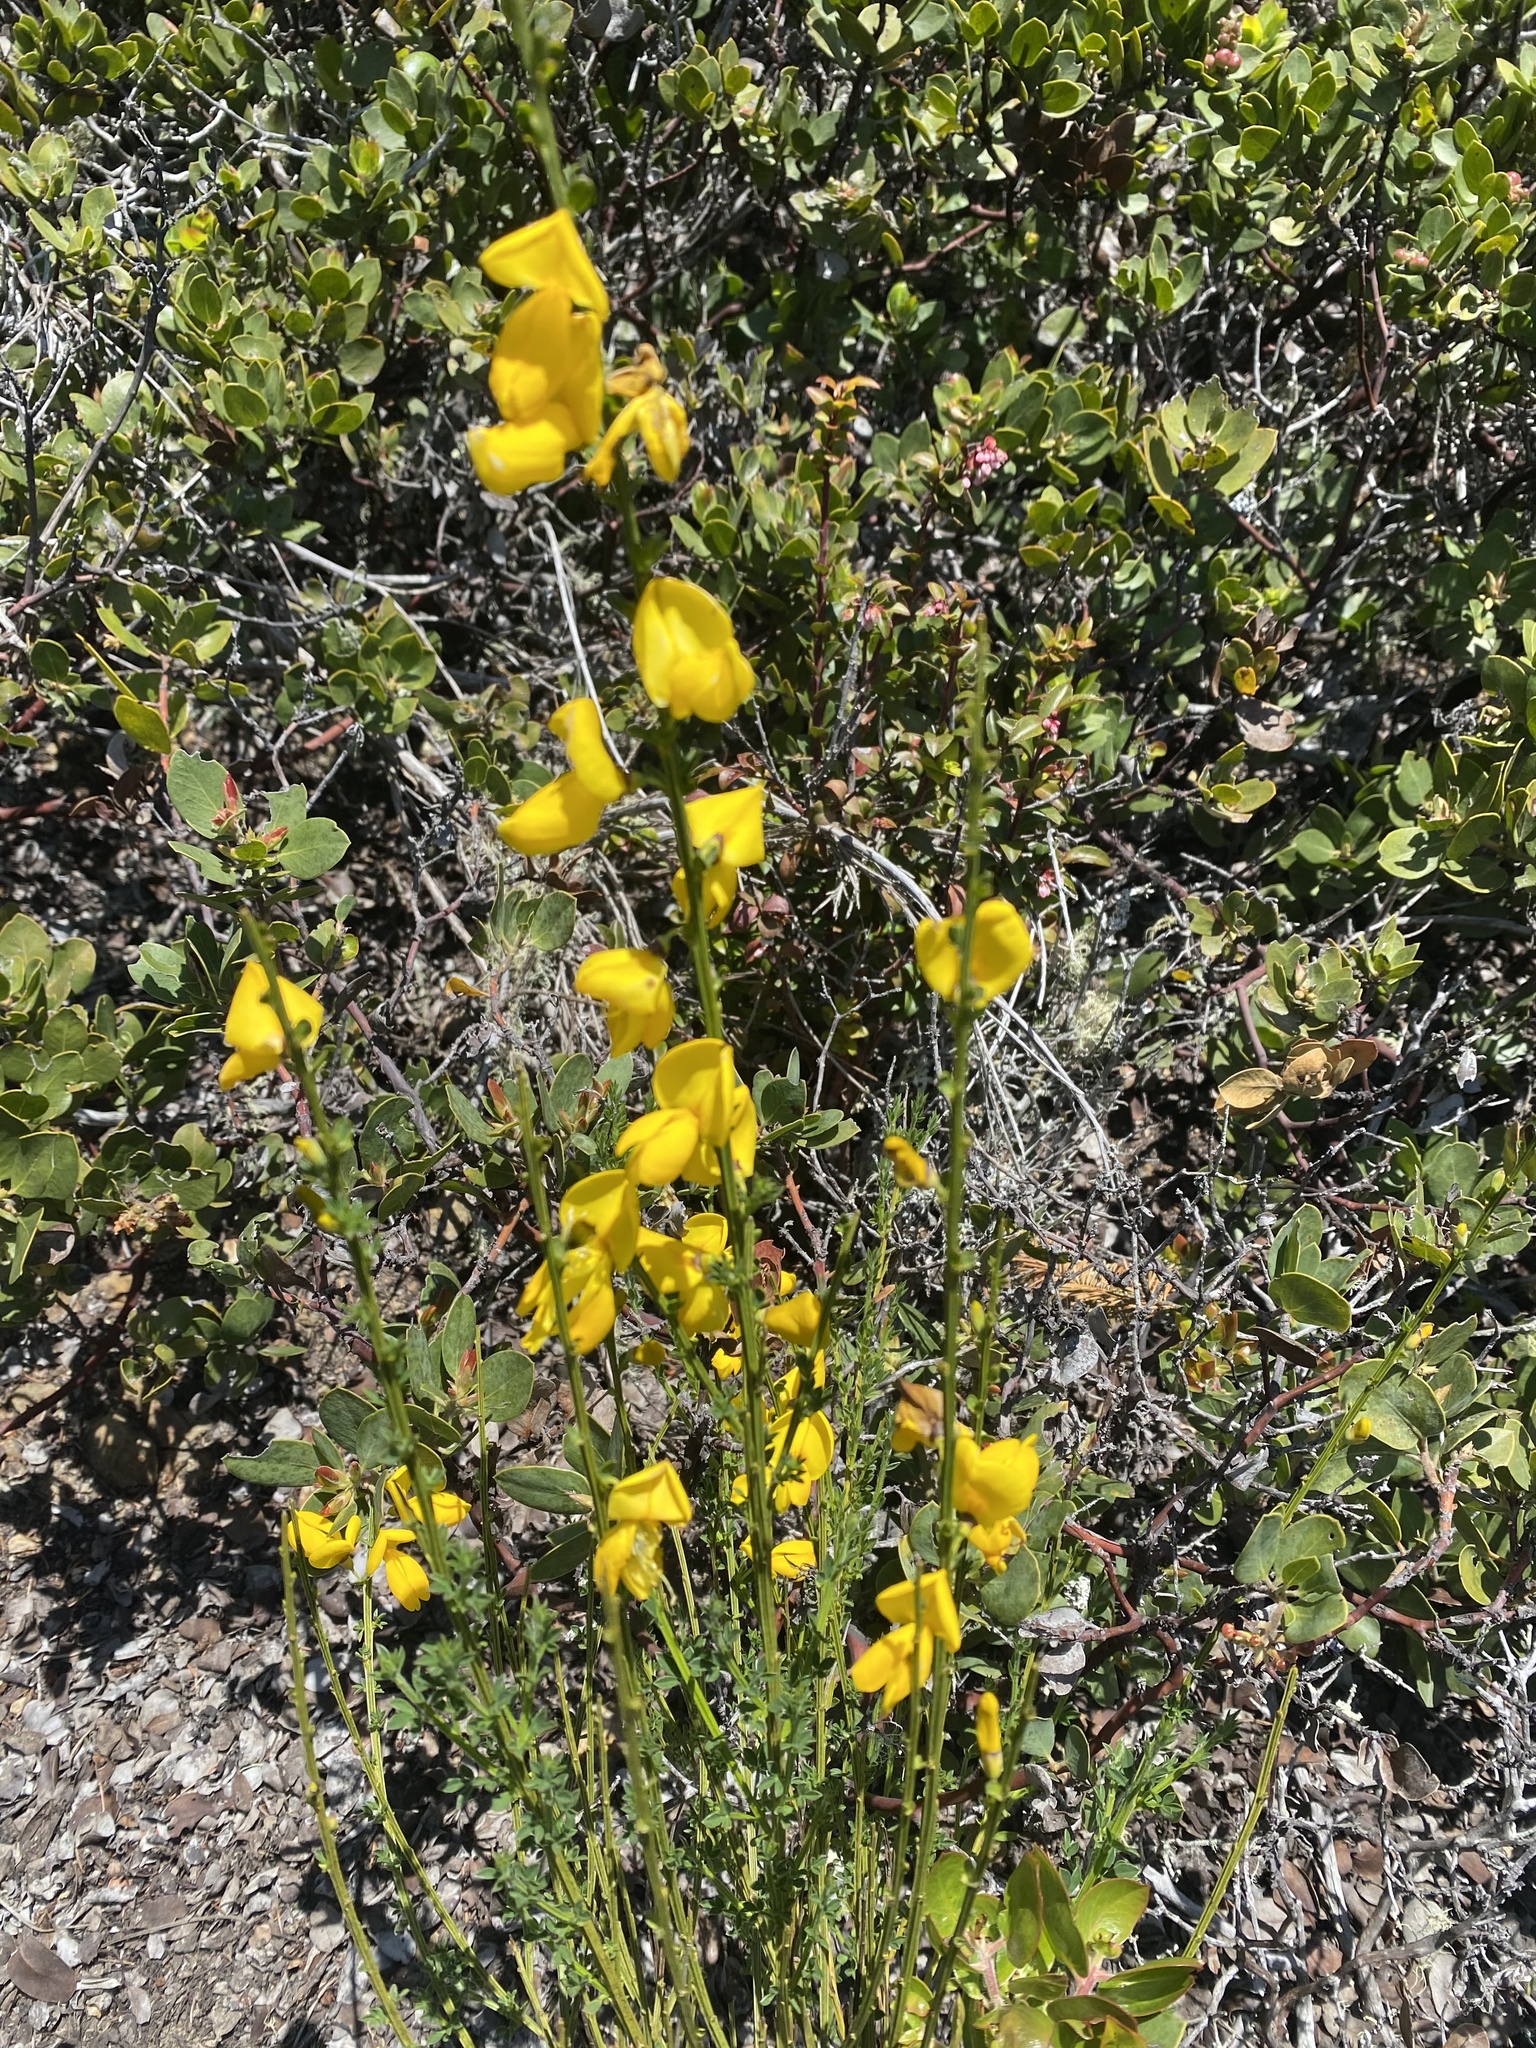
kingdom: Plantae
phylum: Tracheophyta
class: Magnoliopsida
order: Fabales
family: Fabaceae
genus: Cytisus
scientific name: Cytisus scoparius
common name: Scotch broom
